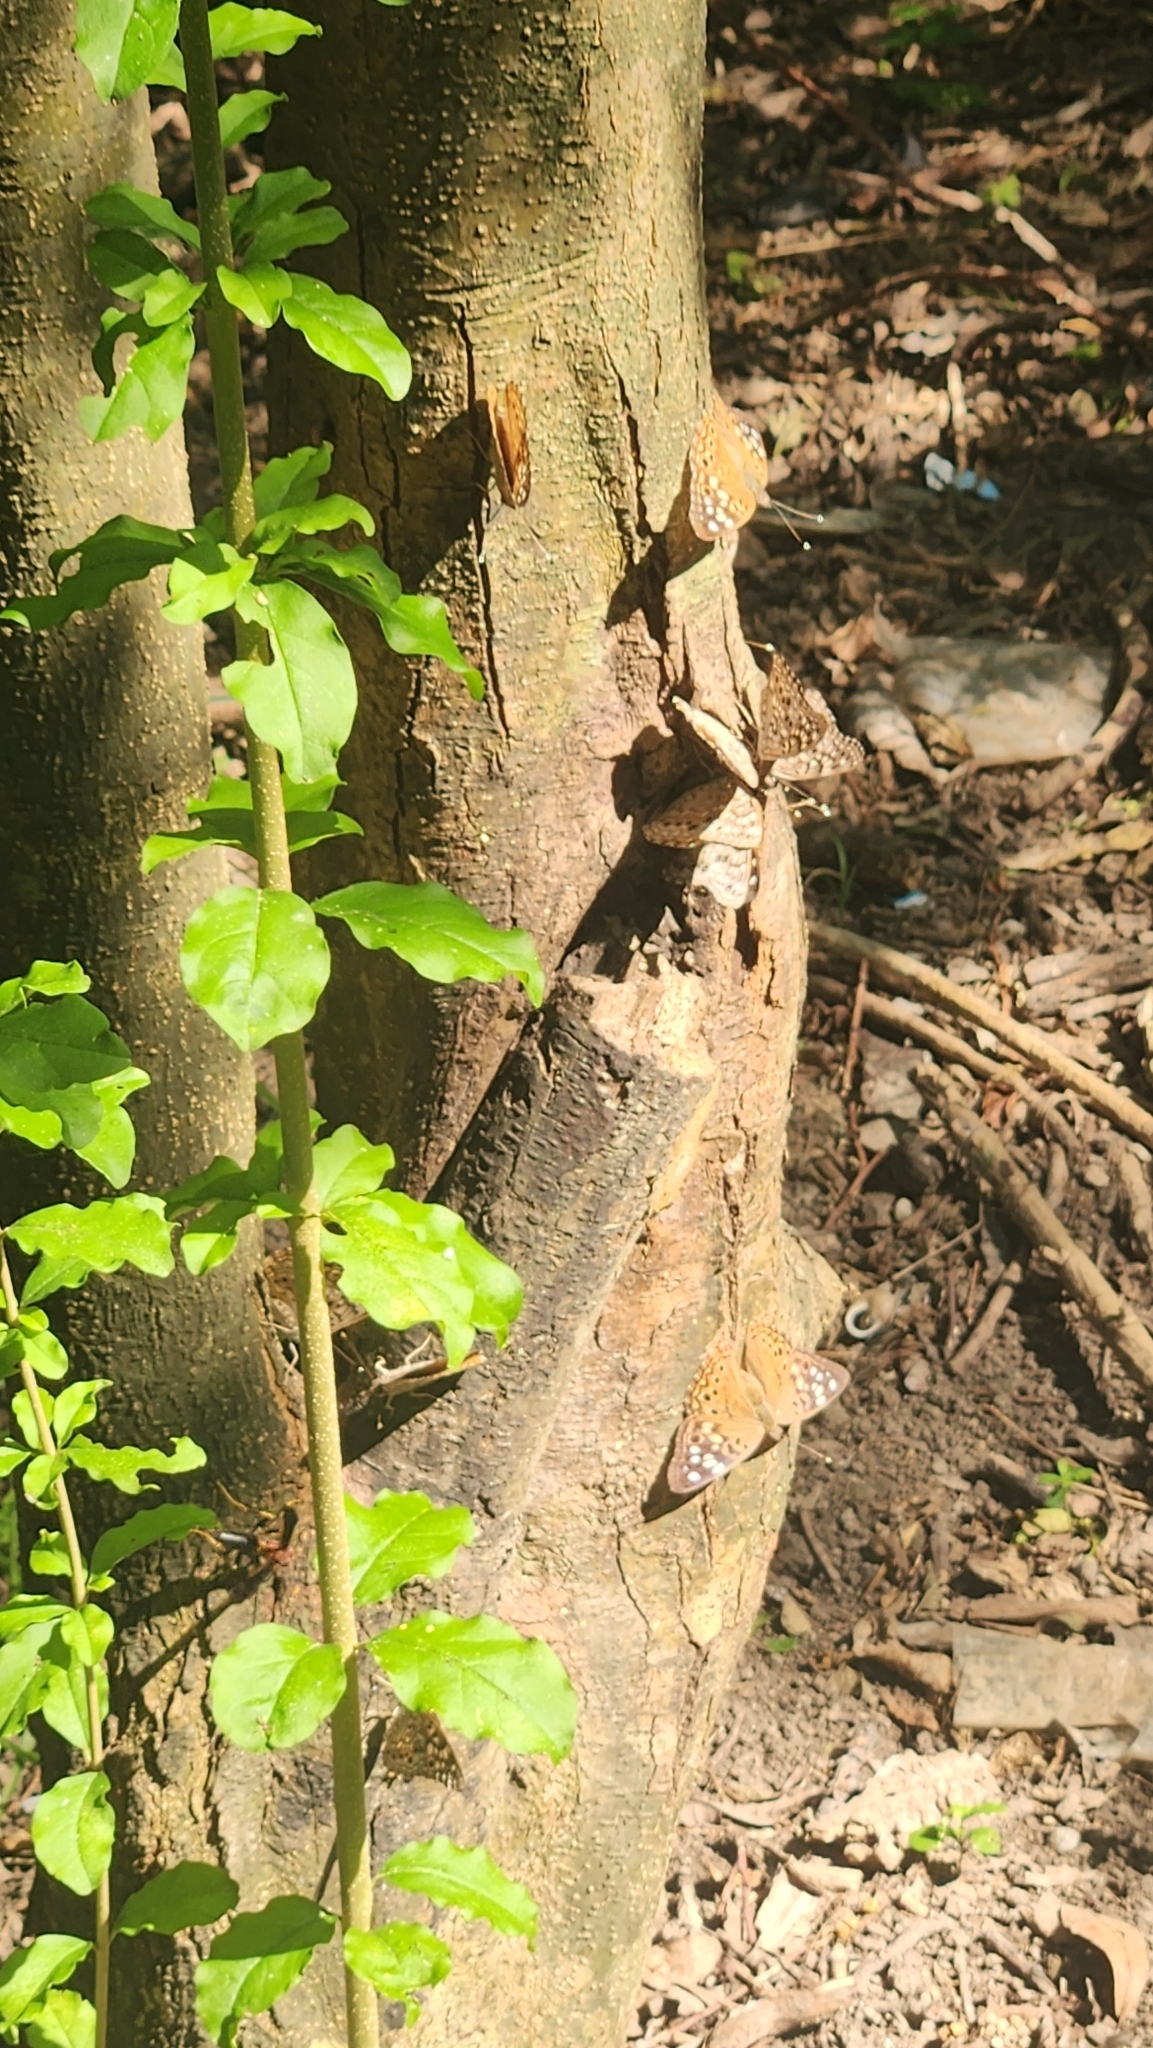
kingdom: Animalia
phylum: Arthropoda
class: Insecta
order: Lepidoptera
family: Nymphalidae
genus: Asterocampa
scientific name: Asterocampa celtis
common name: Hackberry emperor
